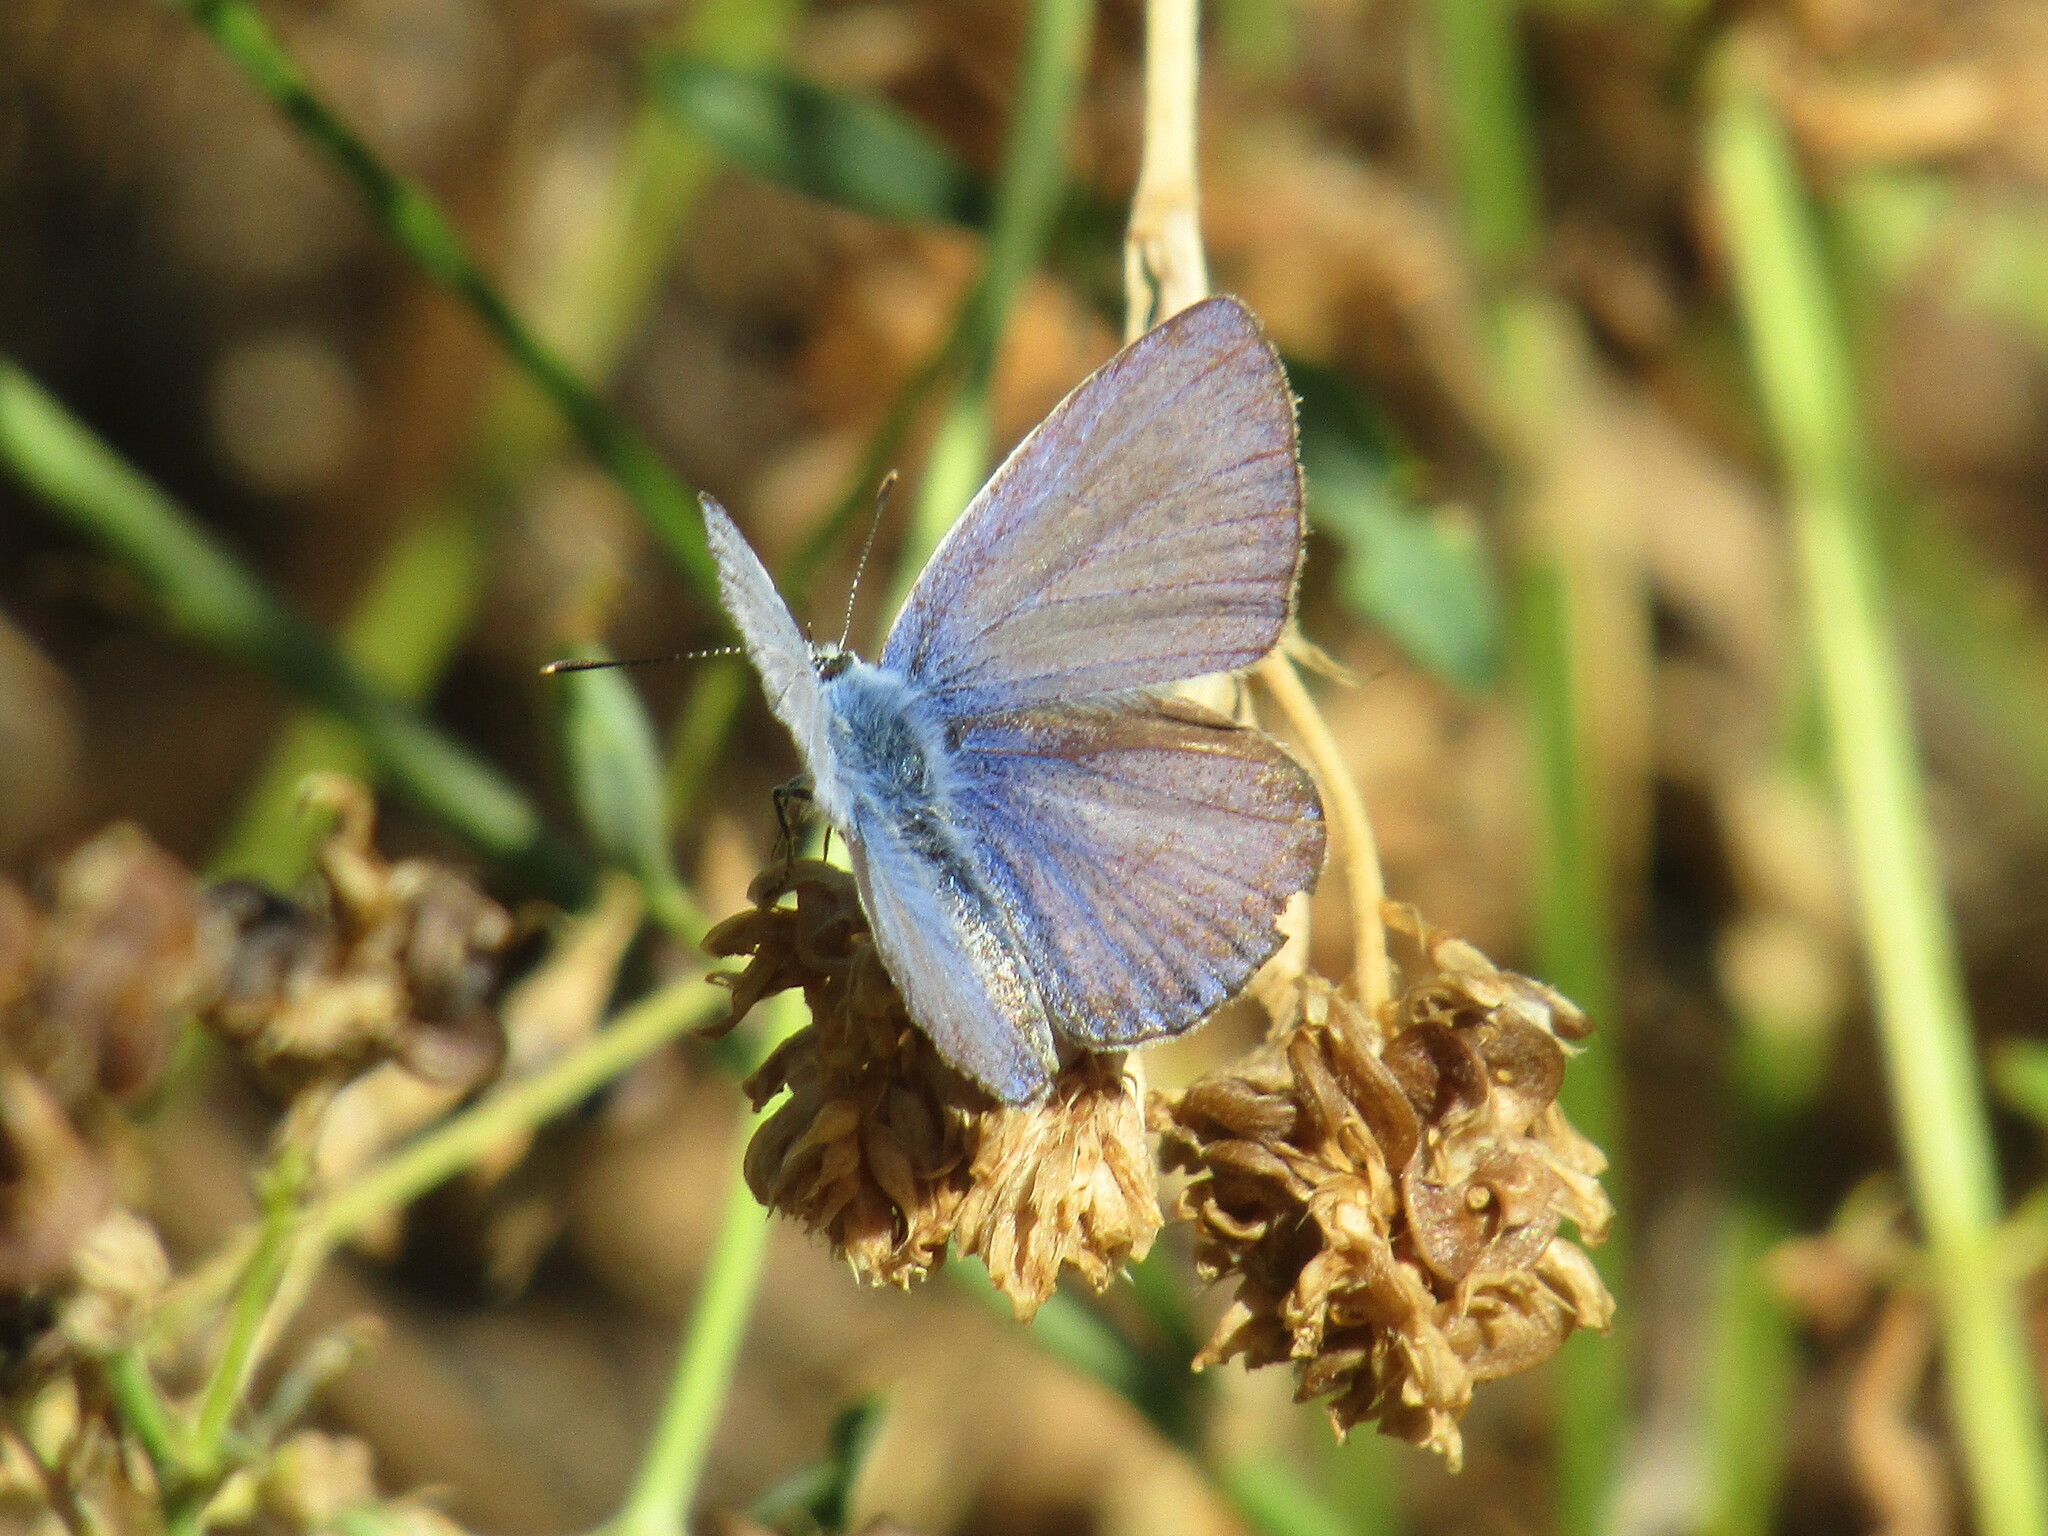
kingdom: Animalia
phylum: Arthropoda
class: Insecta
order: Lepidoptera
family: Lycaenidae
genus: Polyommatus
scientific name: Polyommatus icarus
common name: Common blue
